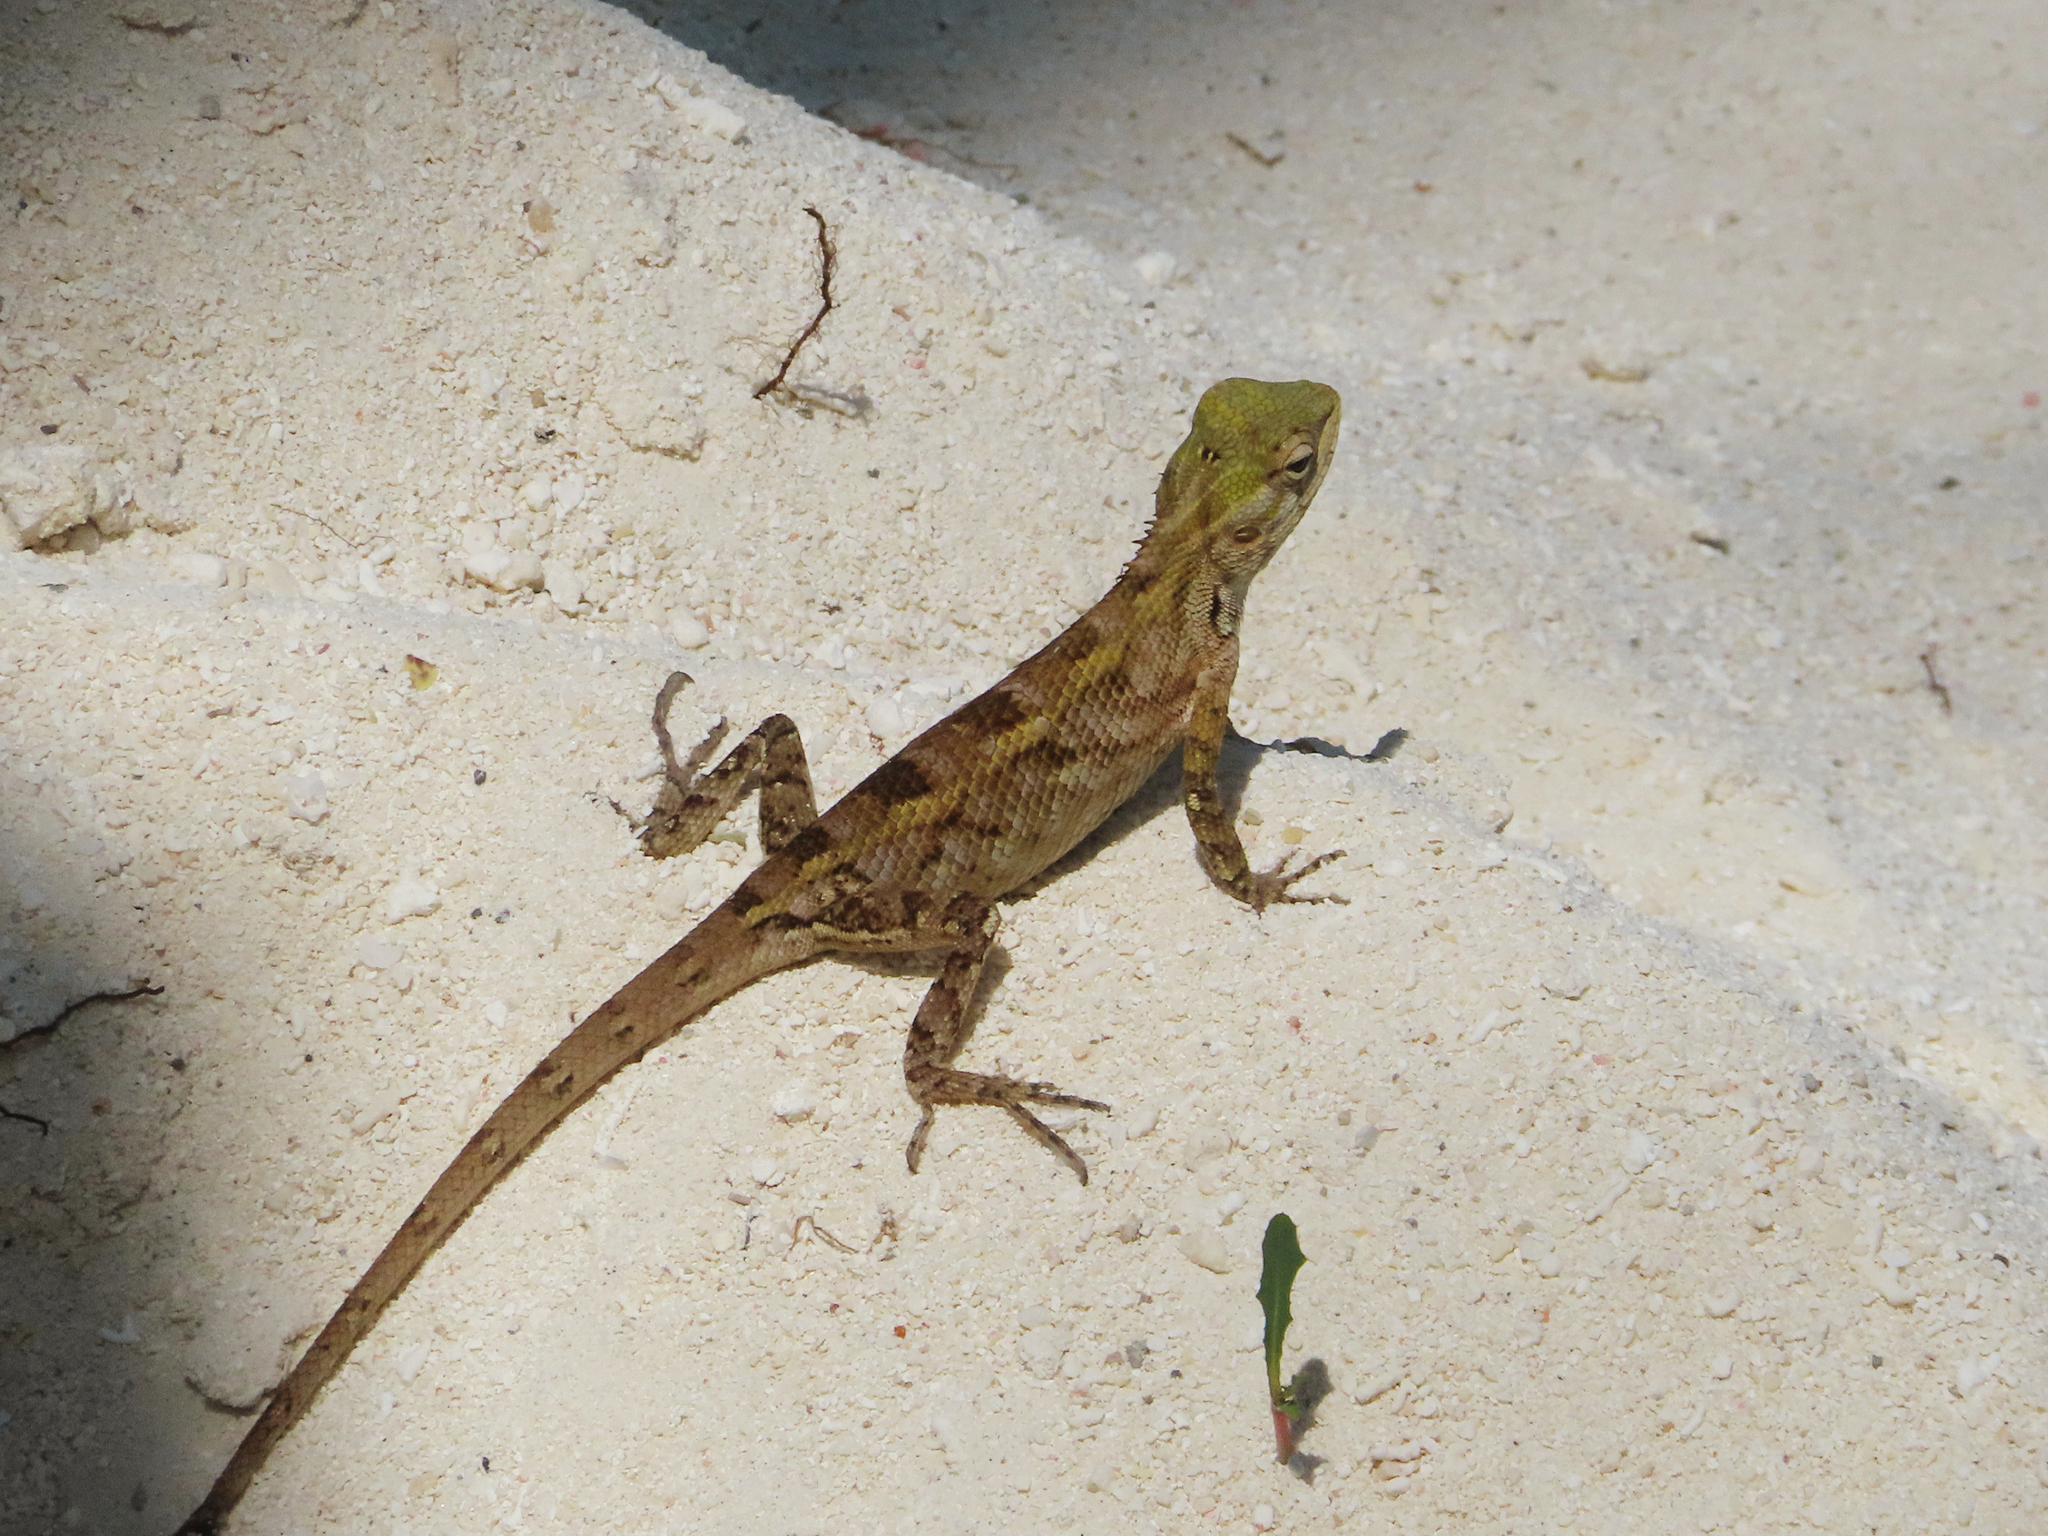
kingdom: Animalia
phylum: Chordata
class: Squamata
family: Agamidae
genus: Calotes
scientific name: Calotes versicolor
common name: Oriental garden lizard
